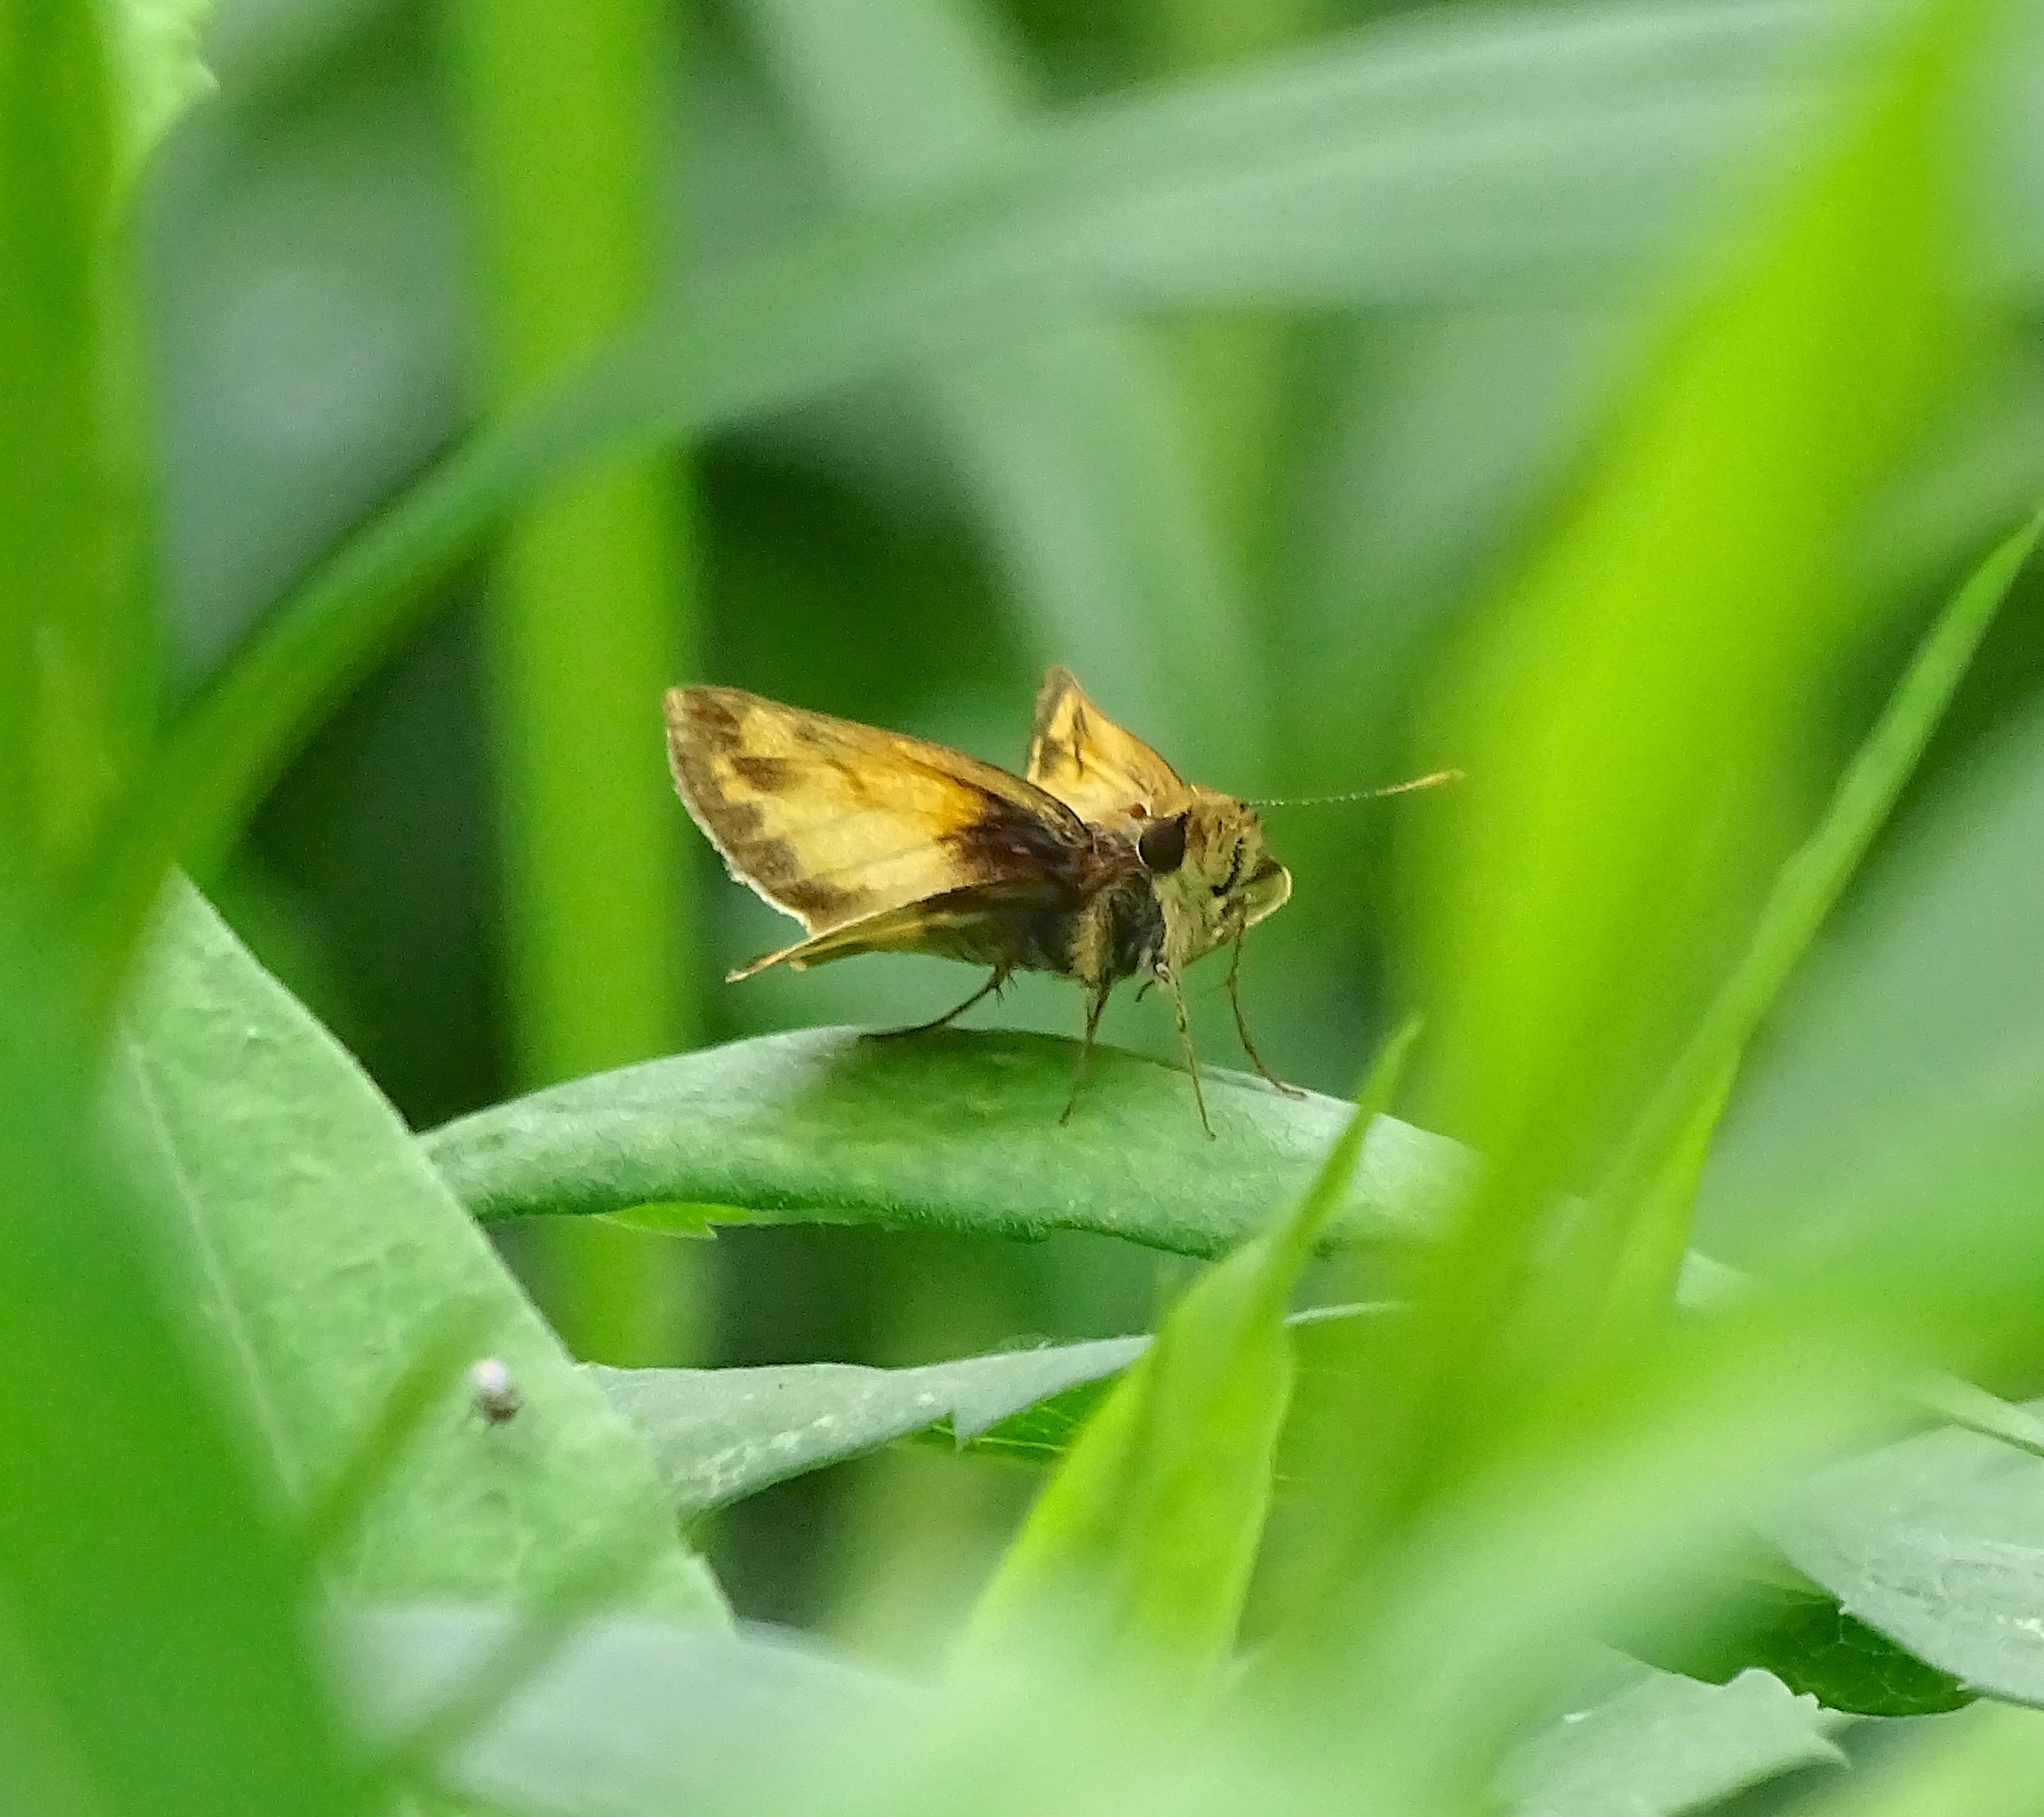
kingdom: Animalia
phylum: Arthropoda
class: Insecta
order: Lepidoptera
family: Hesperiidae
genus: Lon
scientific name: Lon zabulon
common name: Zabulon skipper
